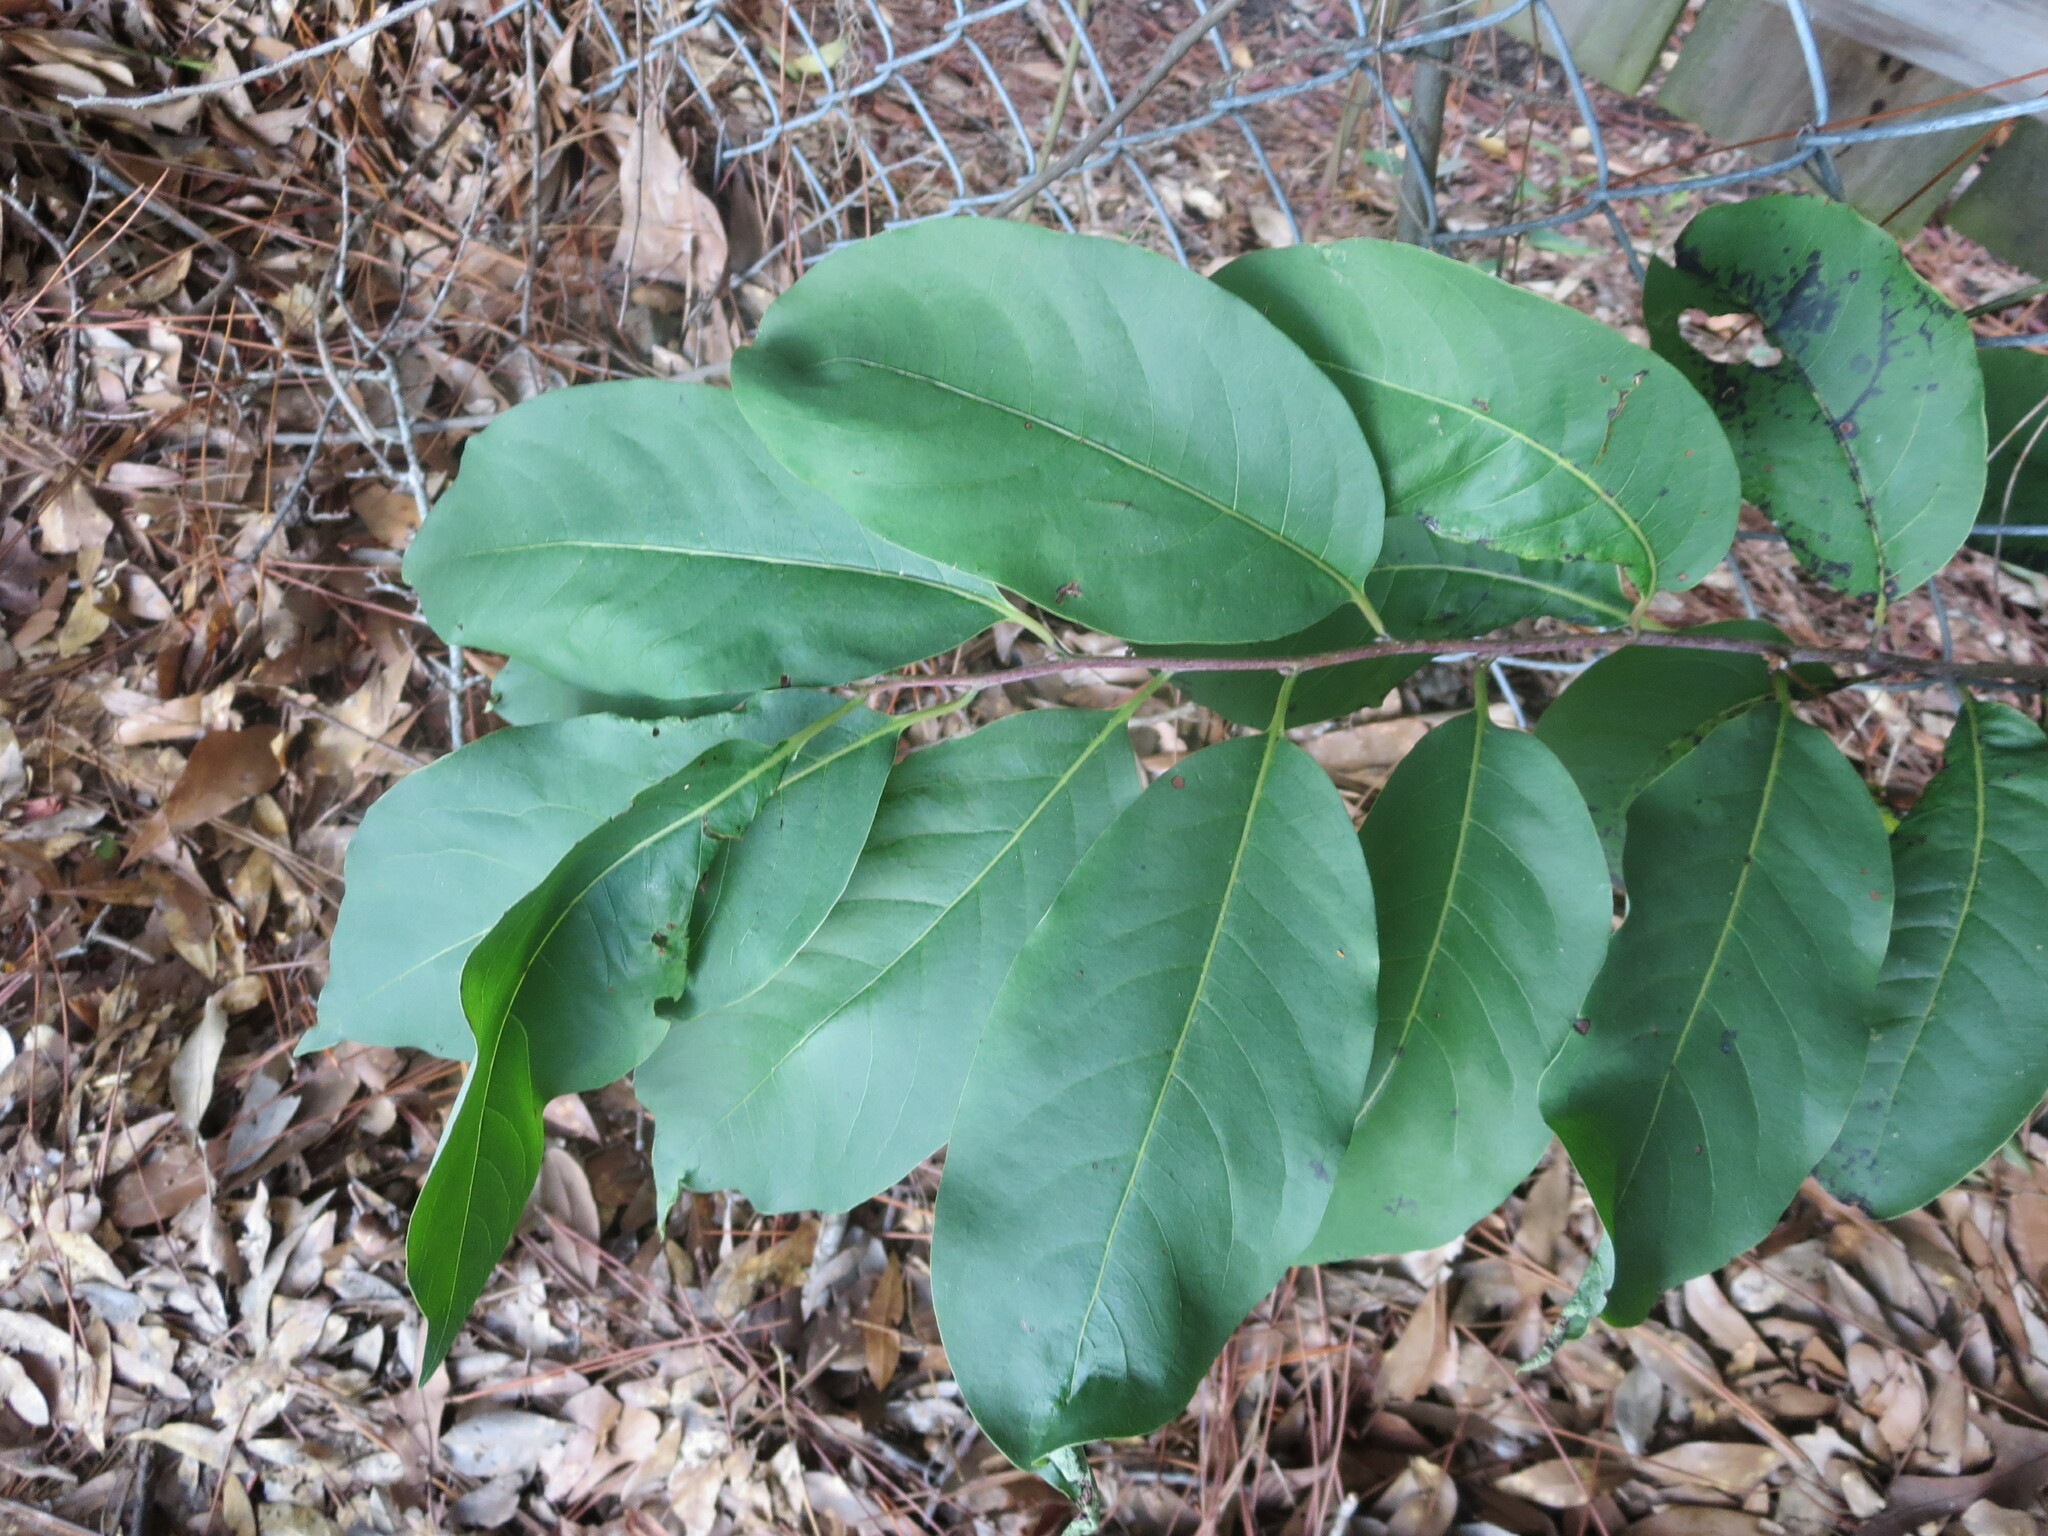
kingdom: Plantae
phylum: Tracheophyta
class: Magnoliopsida
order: Ericales
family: Ebenaceae
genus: Diospyros
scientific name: Diospyros virginiana
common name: Persimmon
